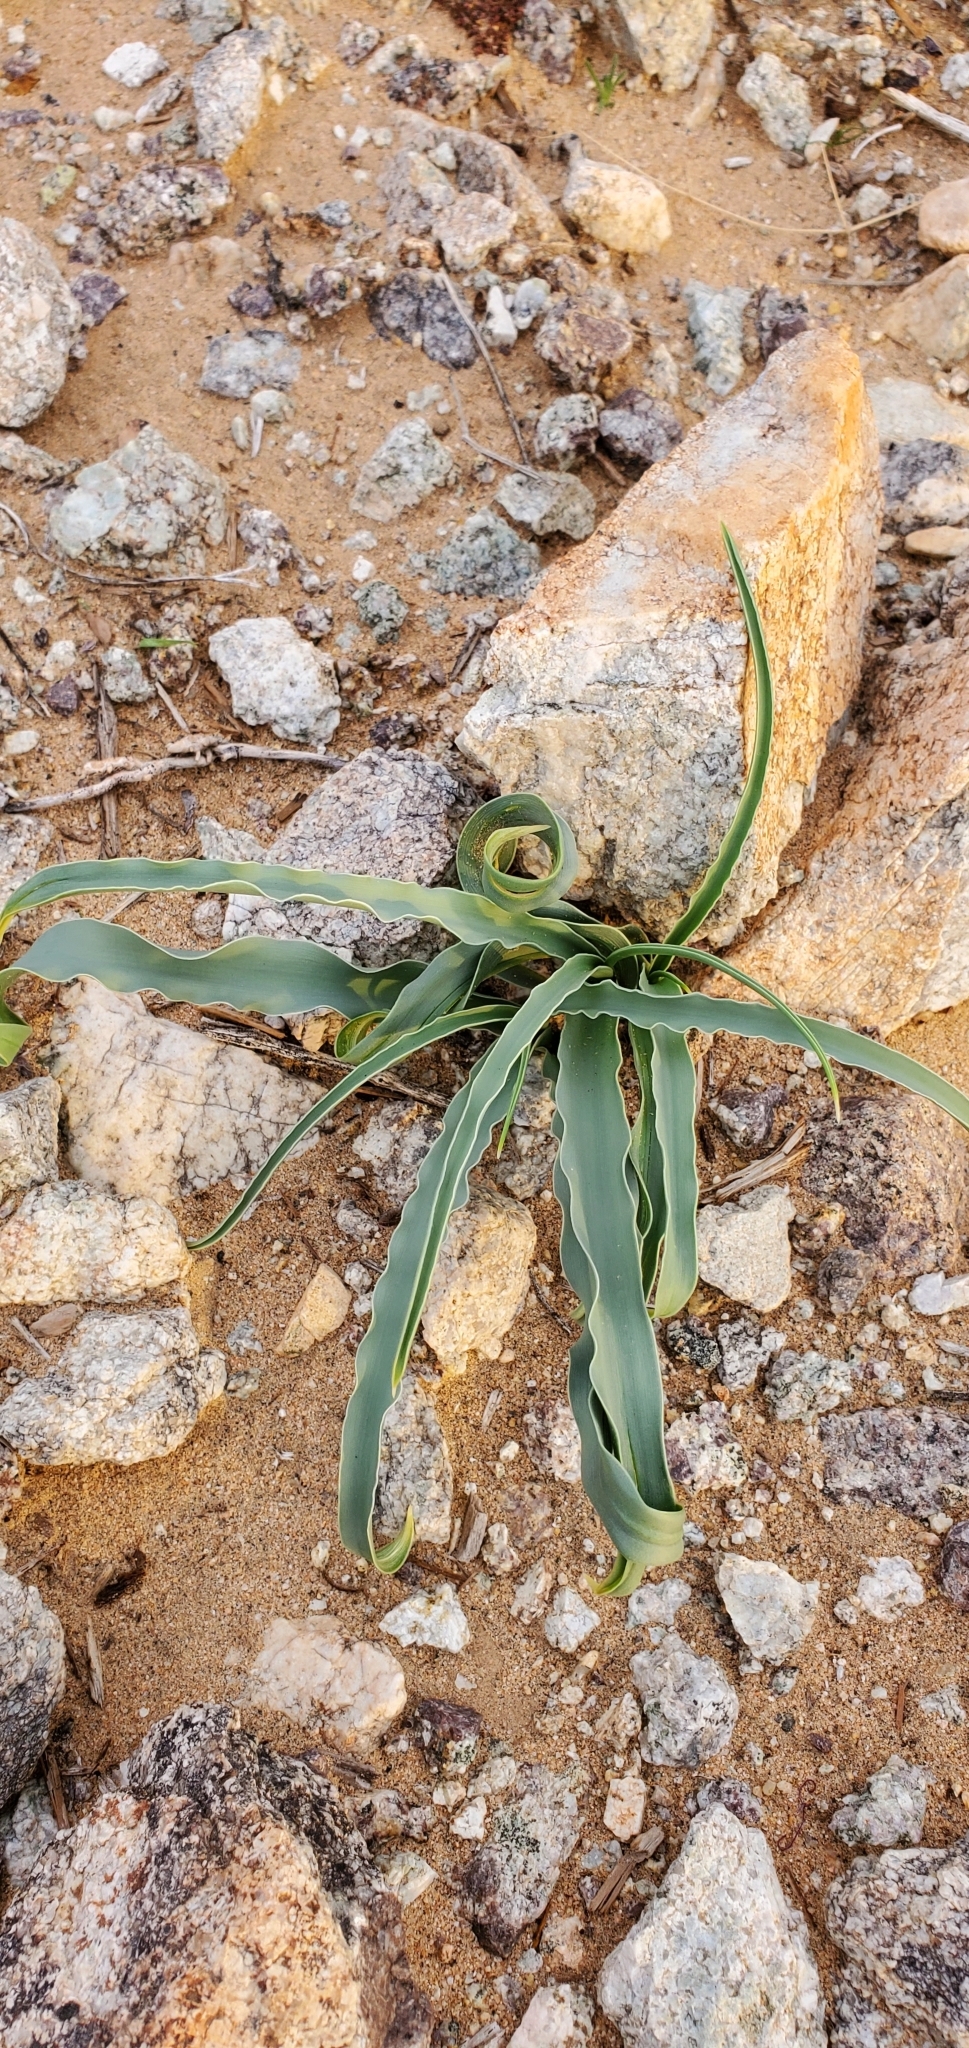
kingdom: Plantae
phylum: Tracheophyta
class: Liliopsida
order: Asparagales
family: Asparagaceae
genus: Hesperocallis
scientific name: Hesperocallis undulata
